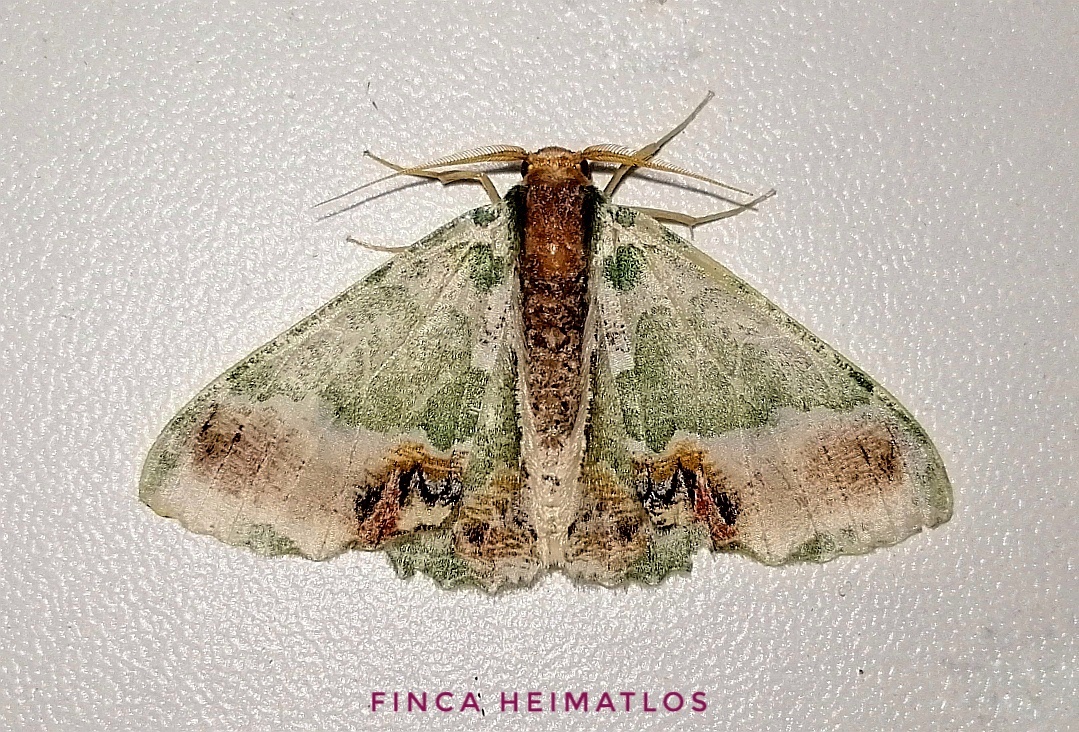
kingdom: Animalia
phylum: Arthropoda
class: Insecta
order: Lepidoptera
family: Geometridae
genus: Lophochorista
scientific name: Lophochorista ockendeni
